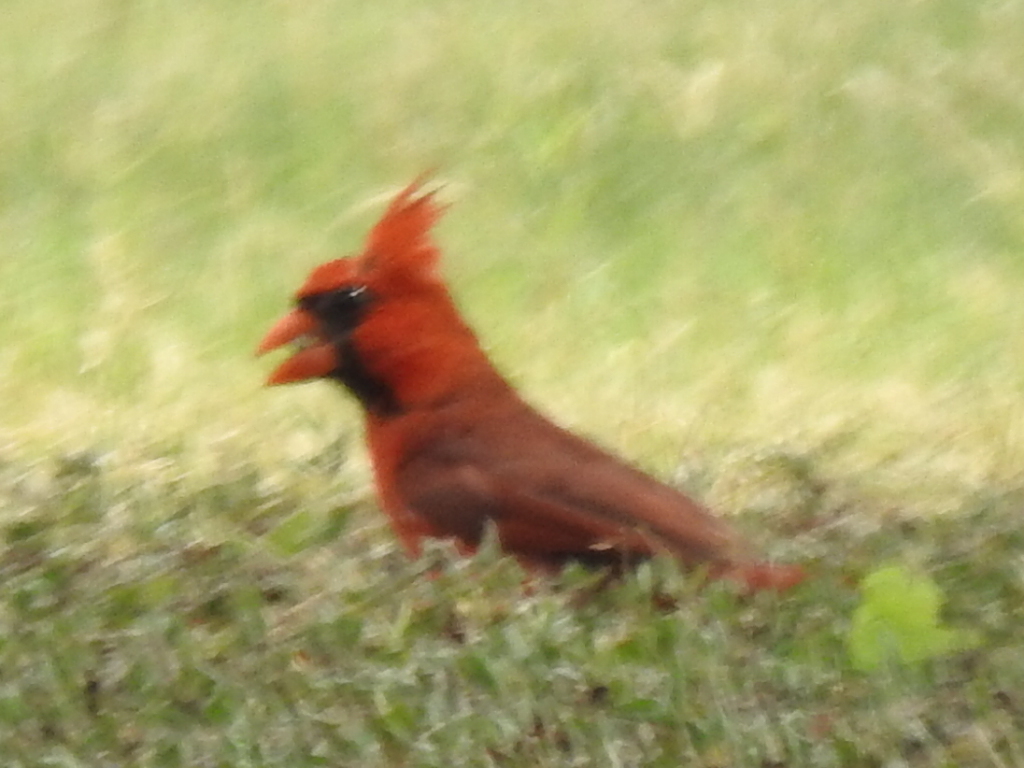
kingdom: Animalia
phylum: Chordata
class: Aves
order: Passeriformes
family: Cardinalidae
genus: Cardinalis
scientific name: Cardinalis cardinalis
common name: Northern cardinal
